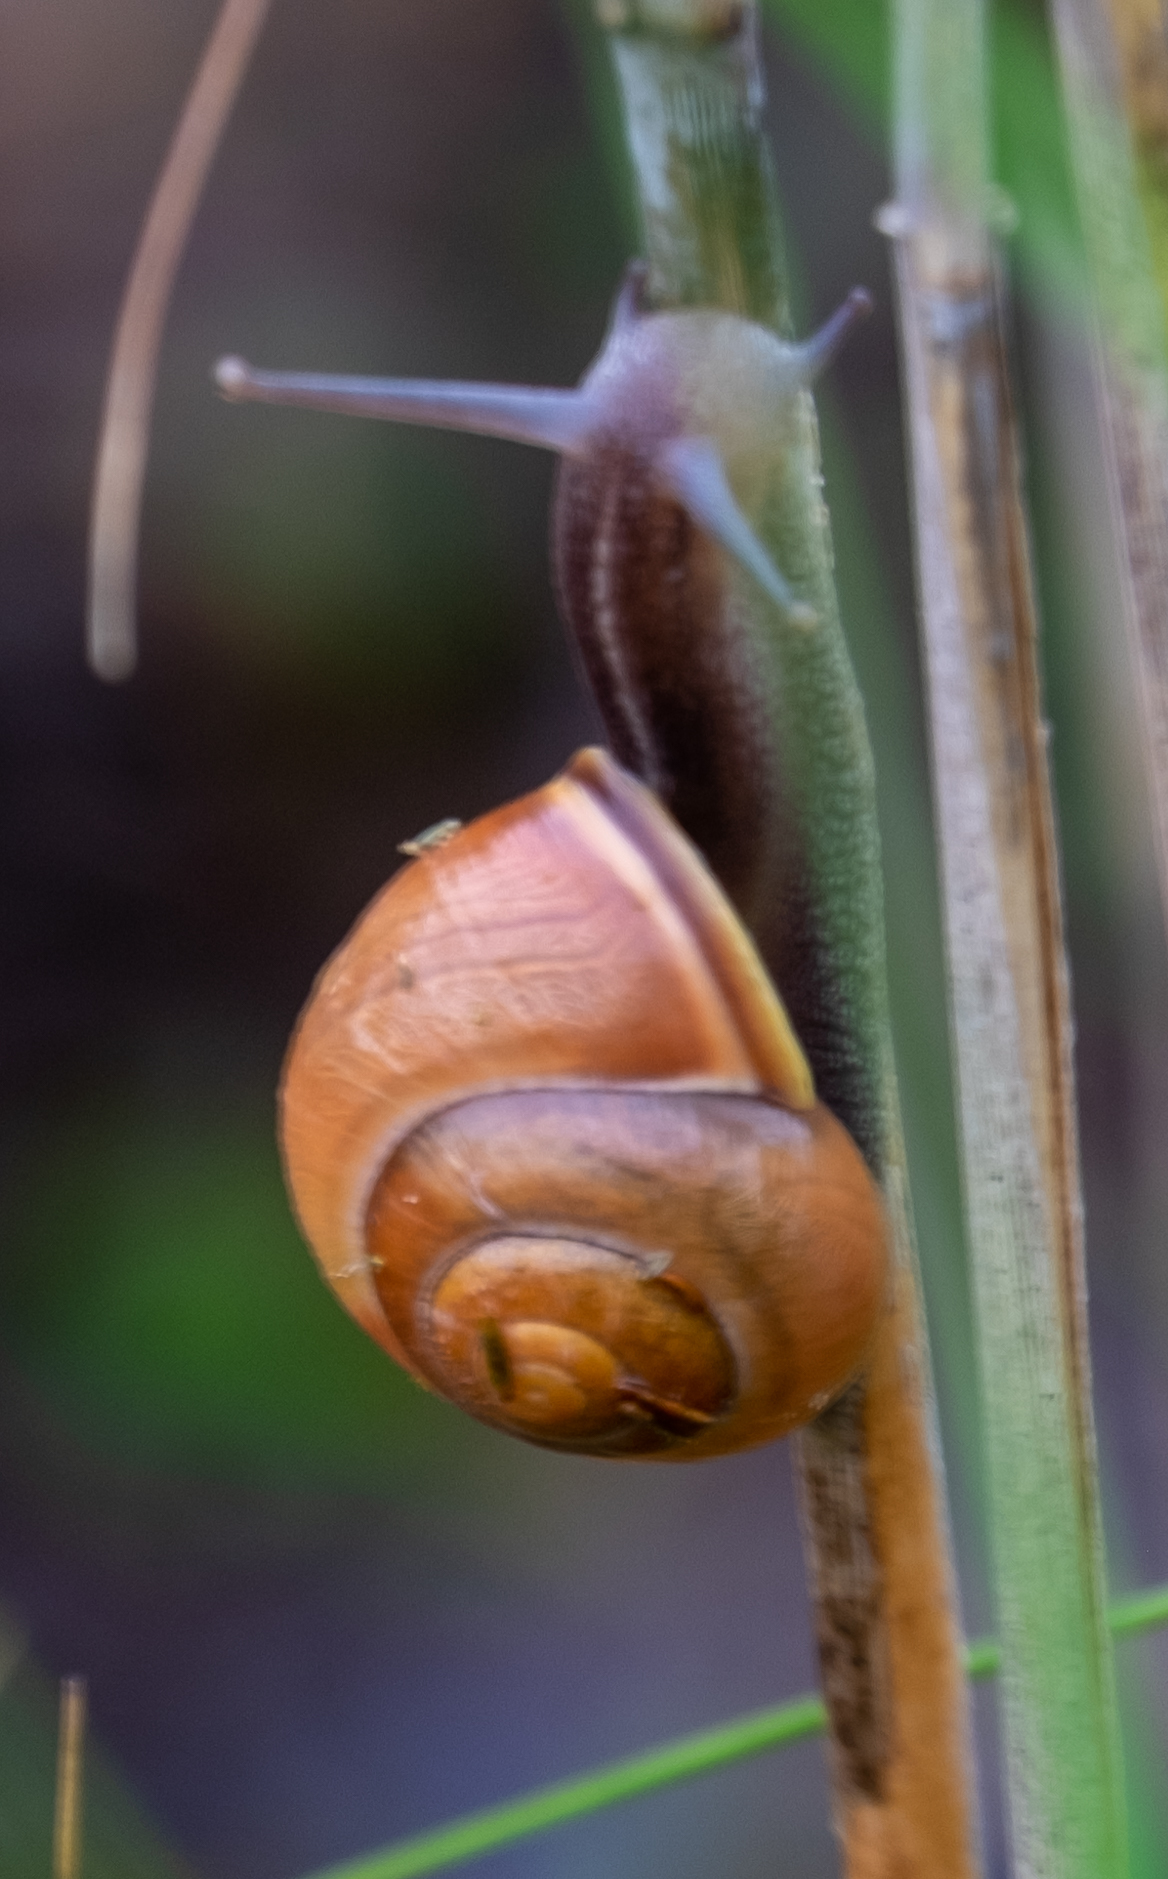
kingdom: Animalia
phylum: Mollusca
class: Gastropoda
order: Stylommatophora
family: Helicidae
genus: Cepaea
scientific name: Cepaea nemoralis
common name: Grovesnail
